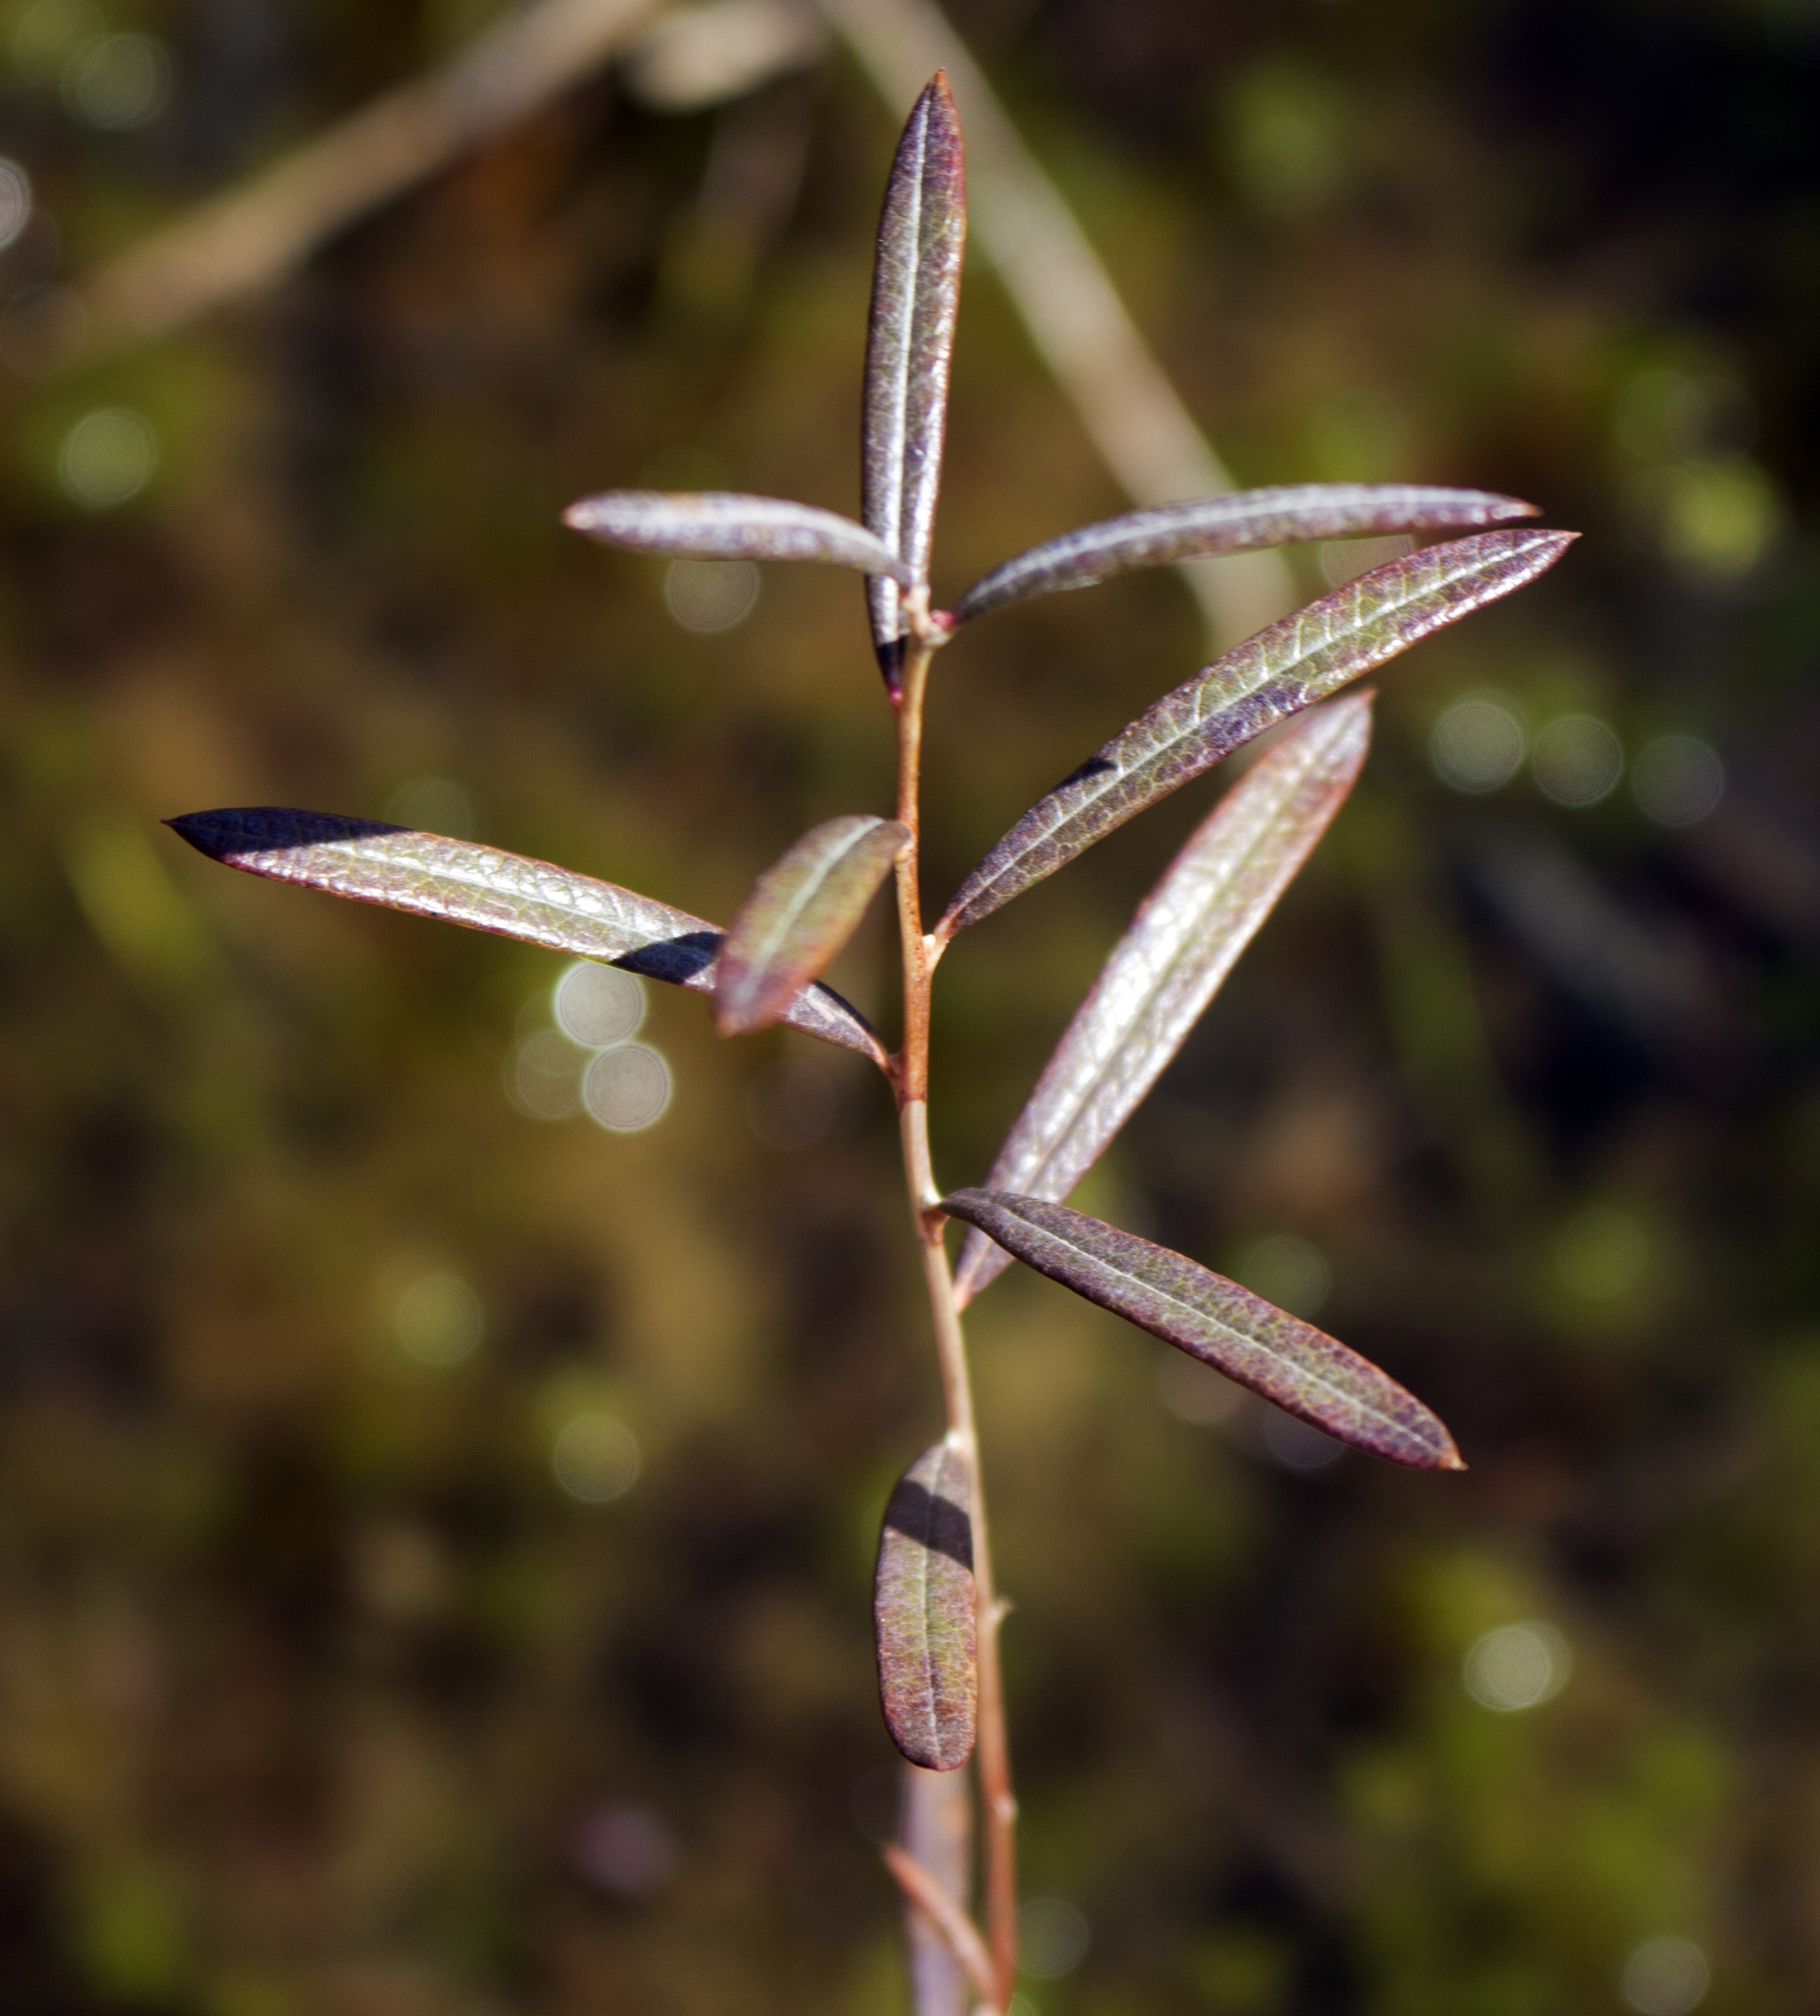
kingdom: Plantae
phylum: Tracheophyta
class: Magnoliopsida
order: Ericales
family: Ericaceae
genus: Andromeda
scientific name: Andromeda polifolia
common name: Bog-rosemary
